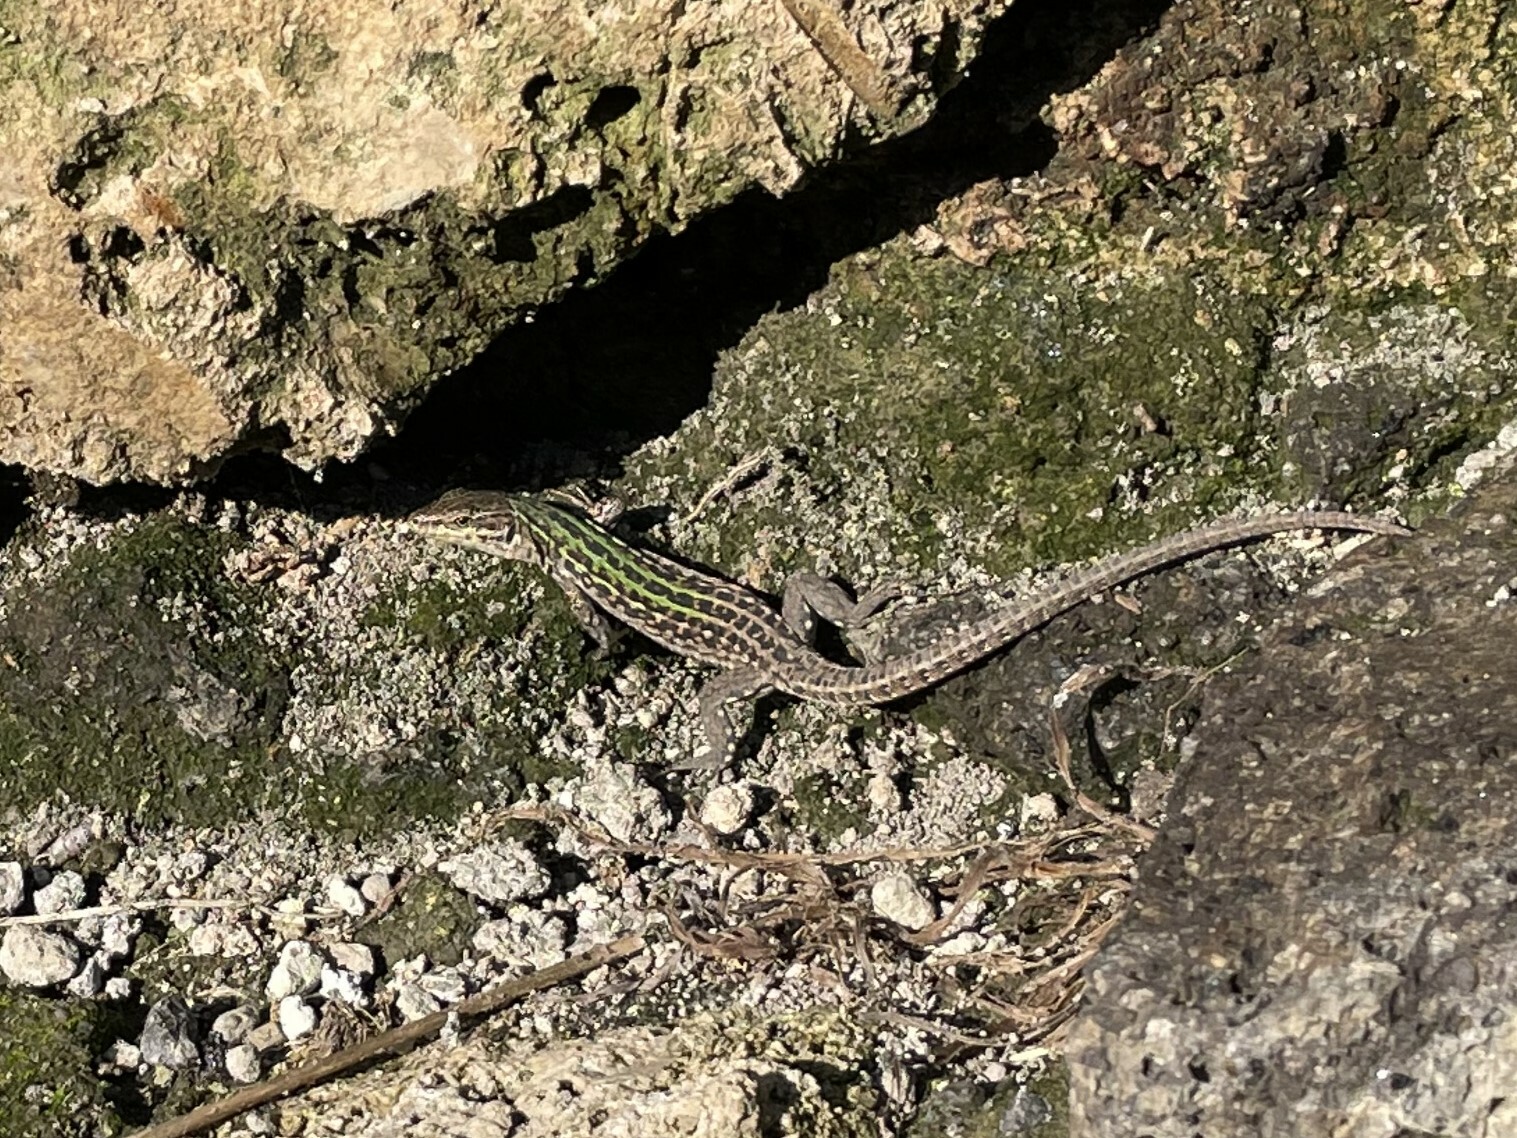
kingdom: Animalia
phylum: Chordata
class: Squamata
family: Lacertidae
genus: Podarcis
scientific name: Podarcis siculus
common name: Italian wall lizard
